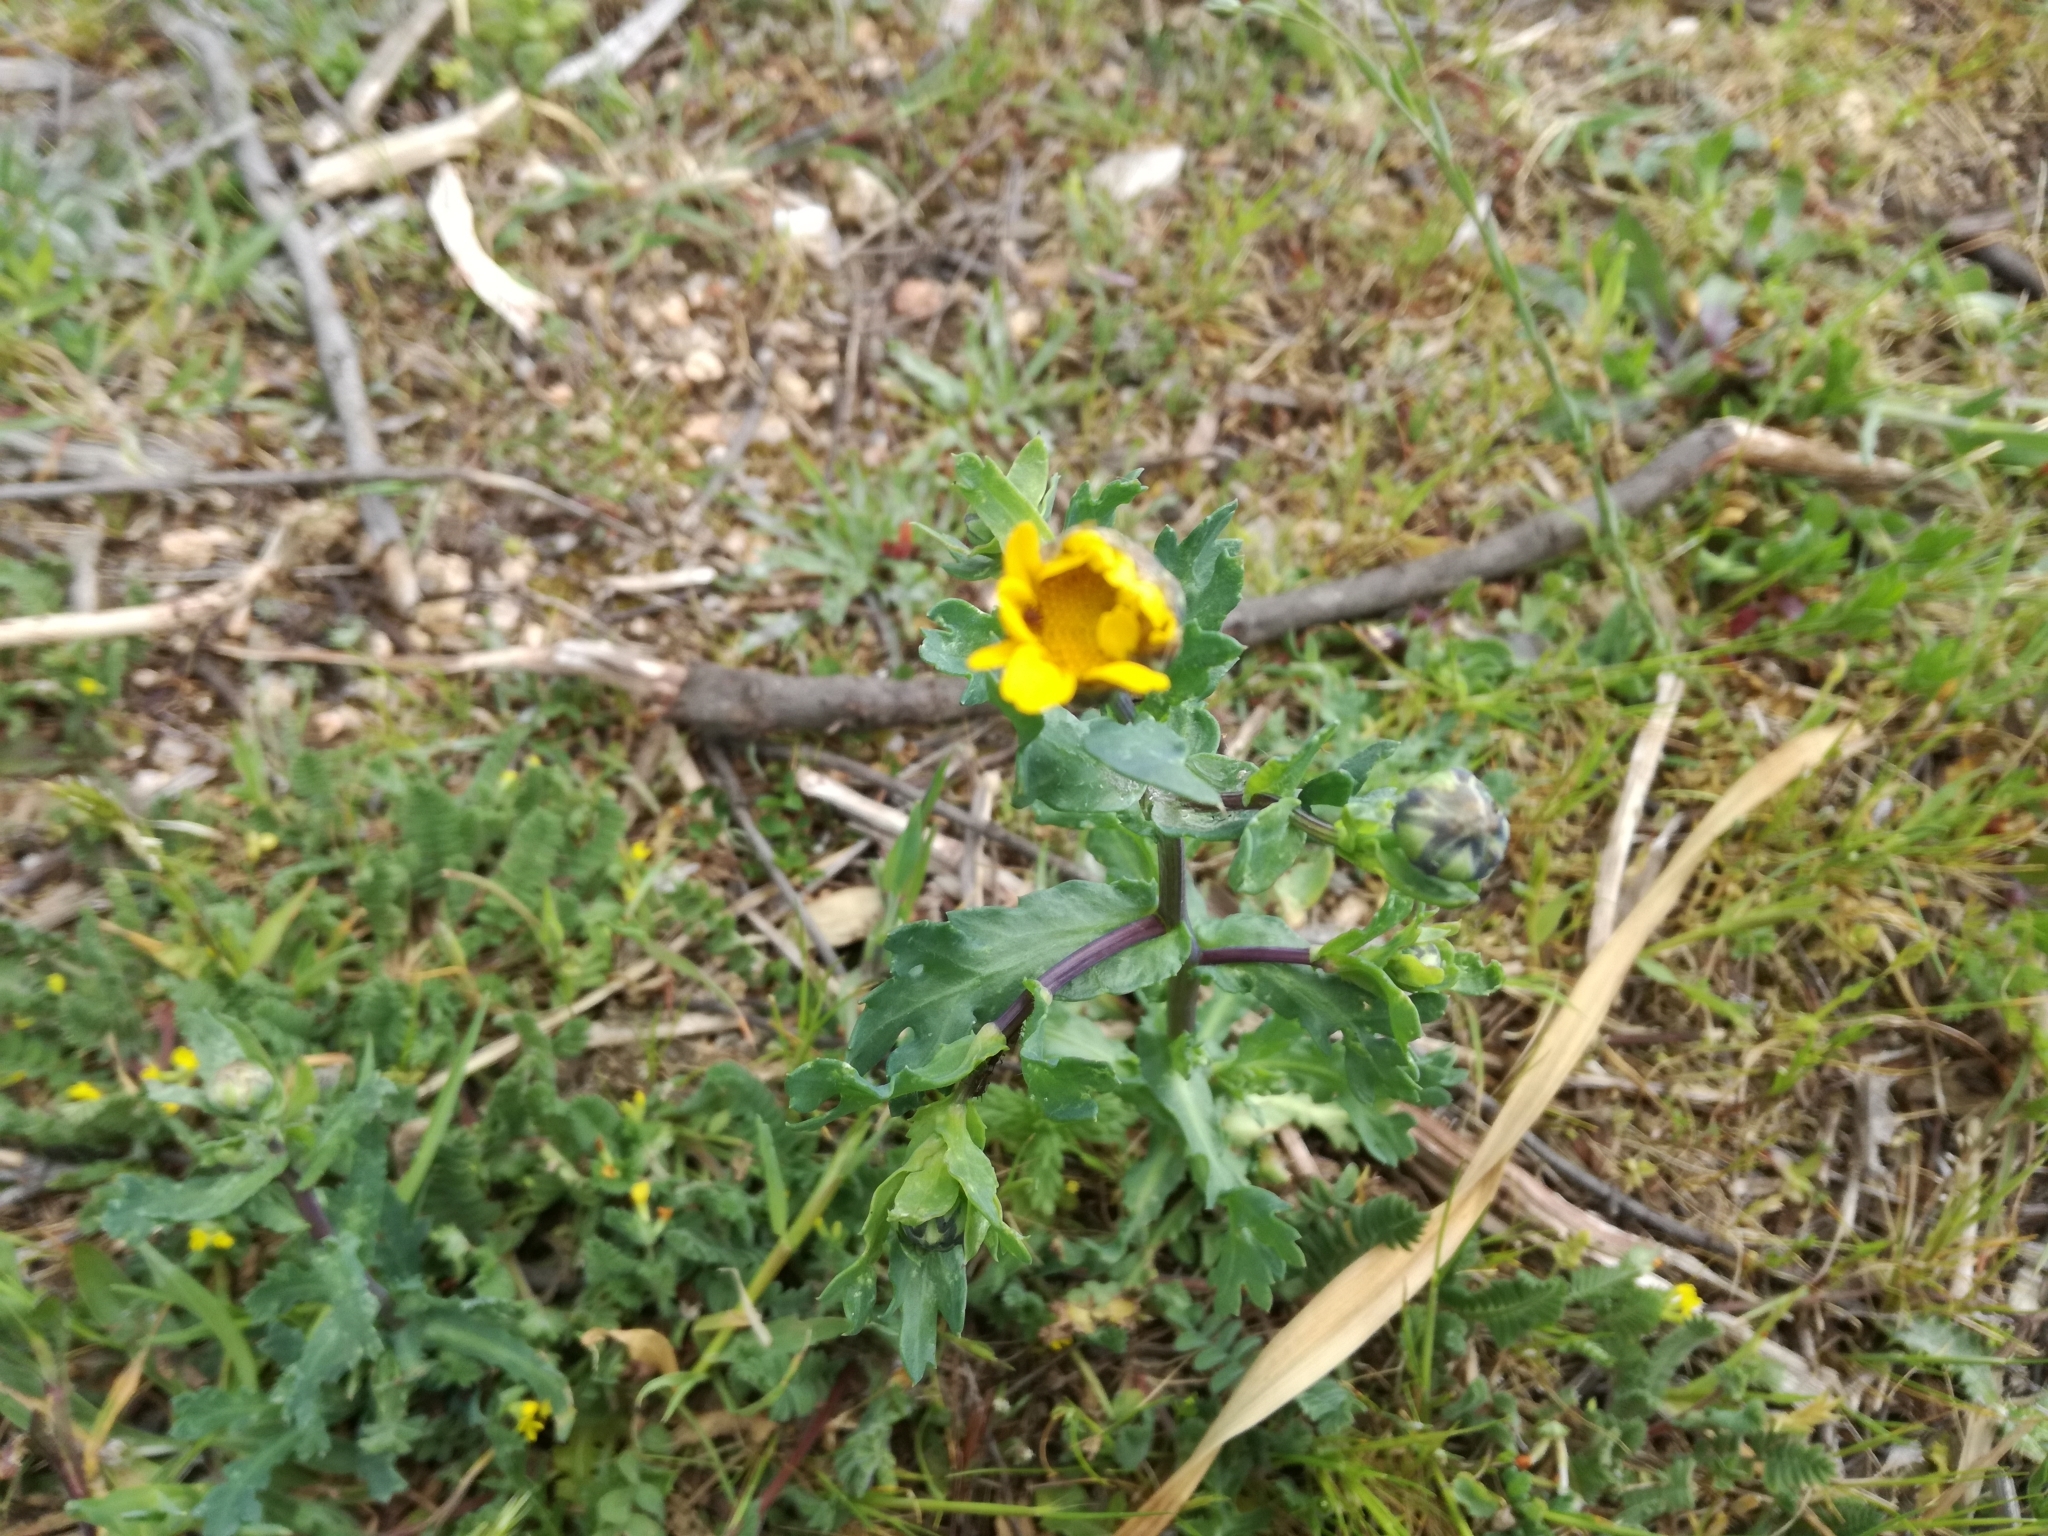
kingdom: Plantae
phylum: Tracheophyta
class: Magnoliopsida
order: Asterales
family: Asteraceae
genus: Glebionis
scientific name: Glebionis segetum
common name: Corndaisy
